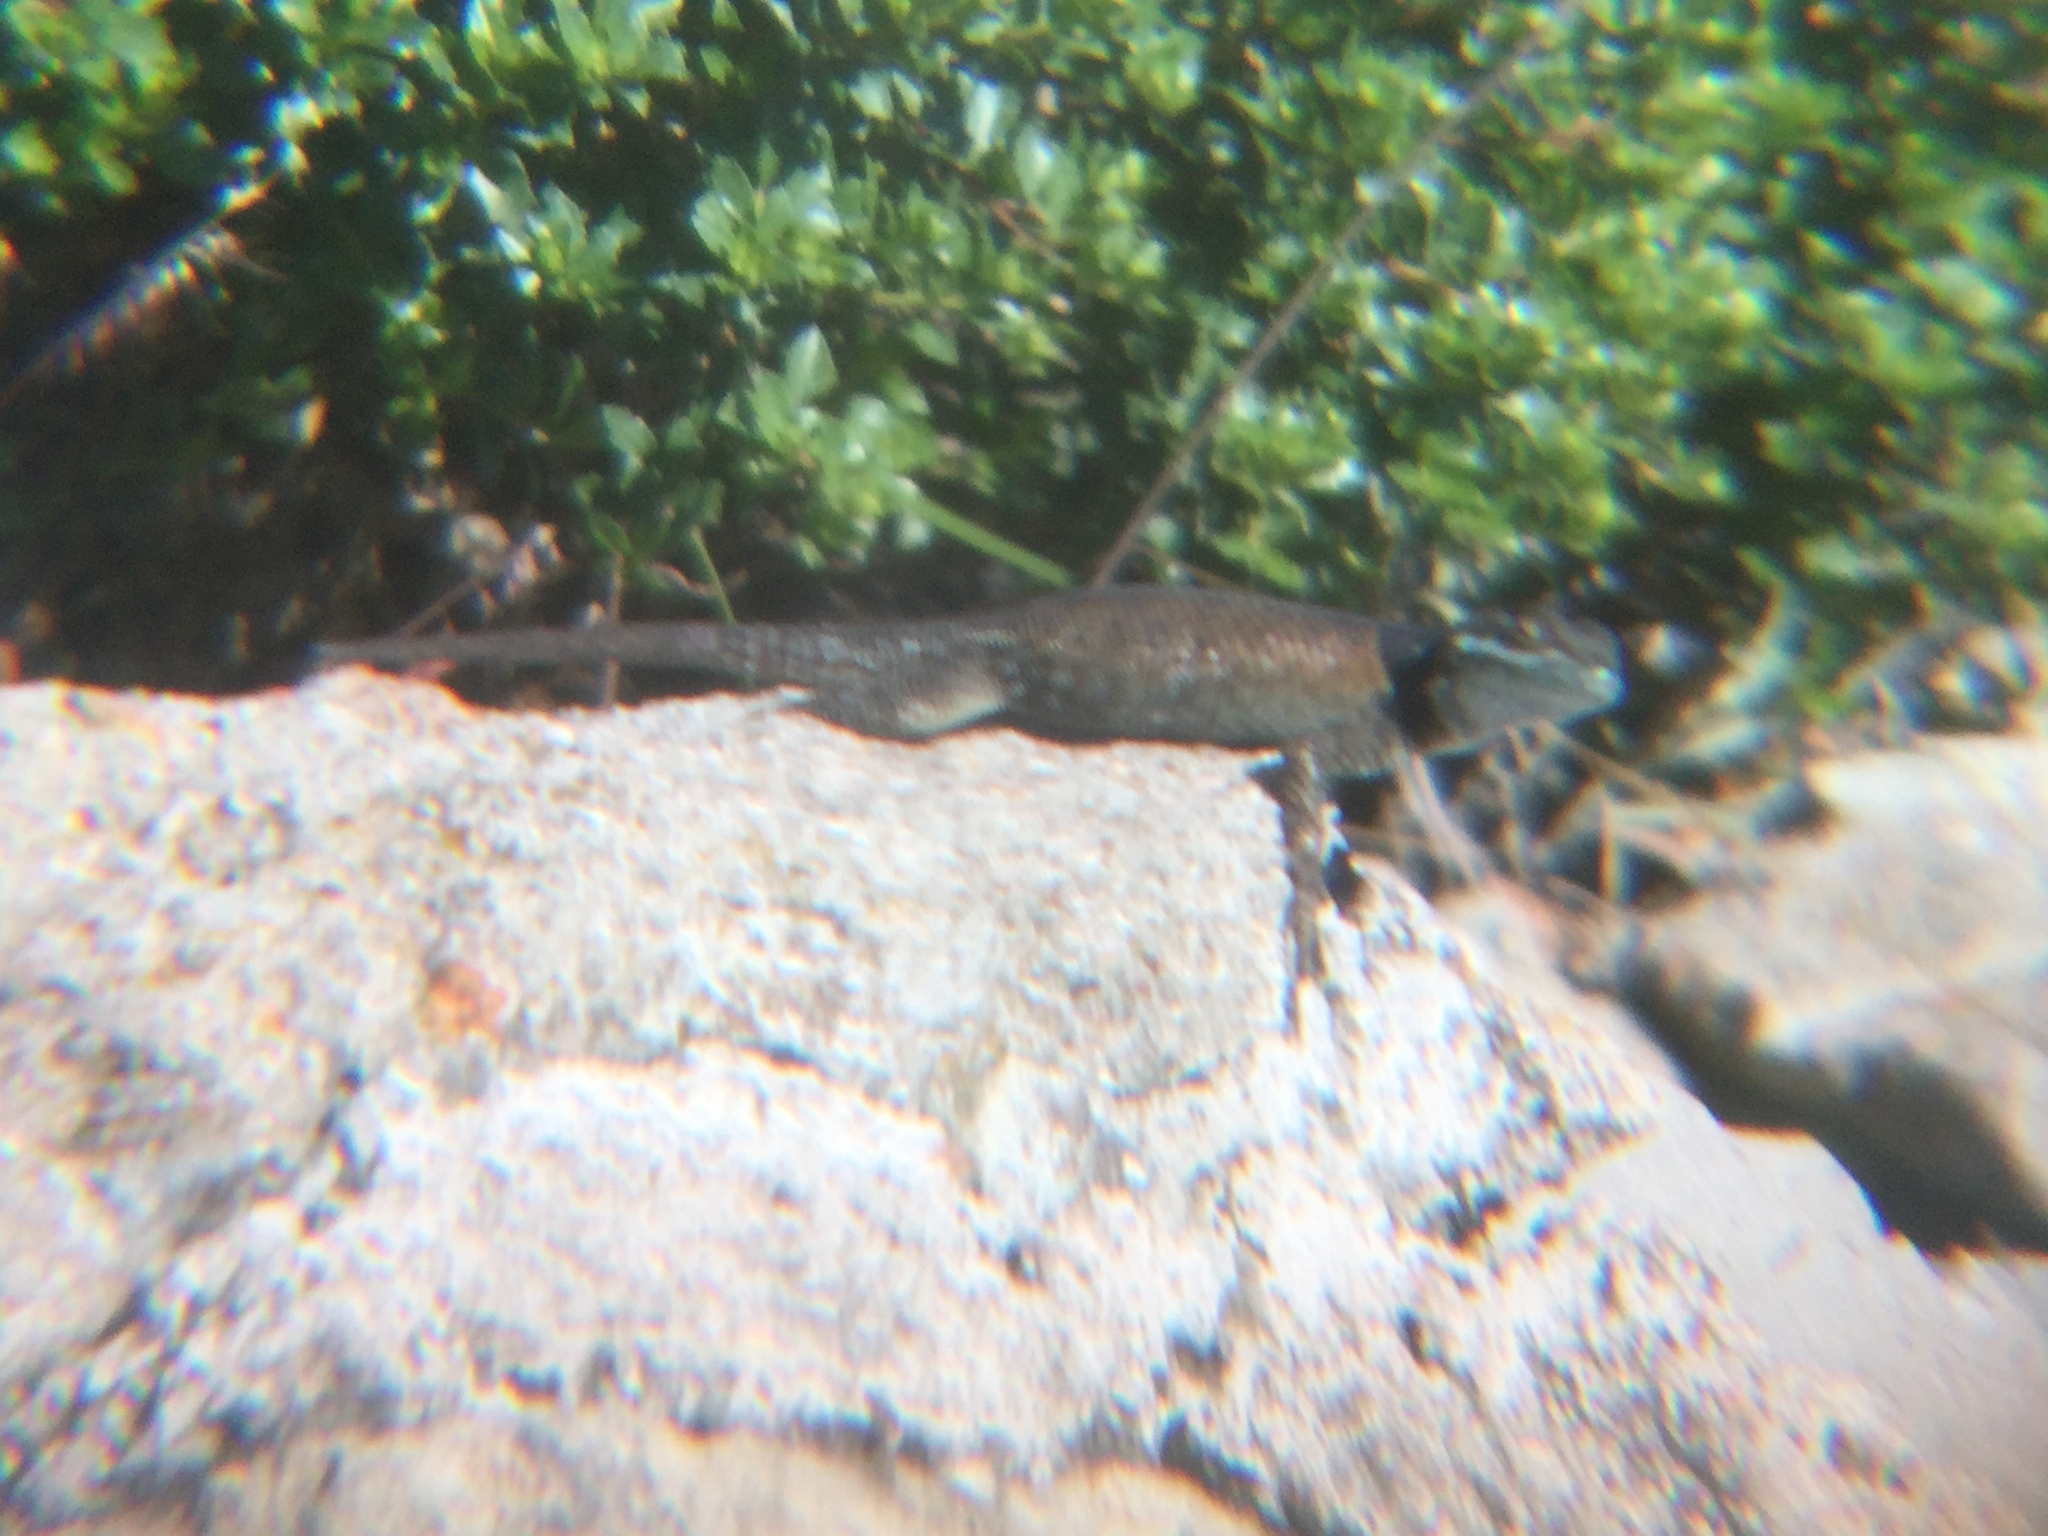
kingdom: Animalia
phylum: Chordata
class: Squamata
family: Phrynosomatidae
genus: Sceloporus
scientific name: Sceloporus minor
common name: Minor lizard
